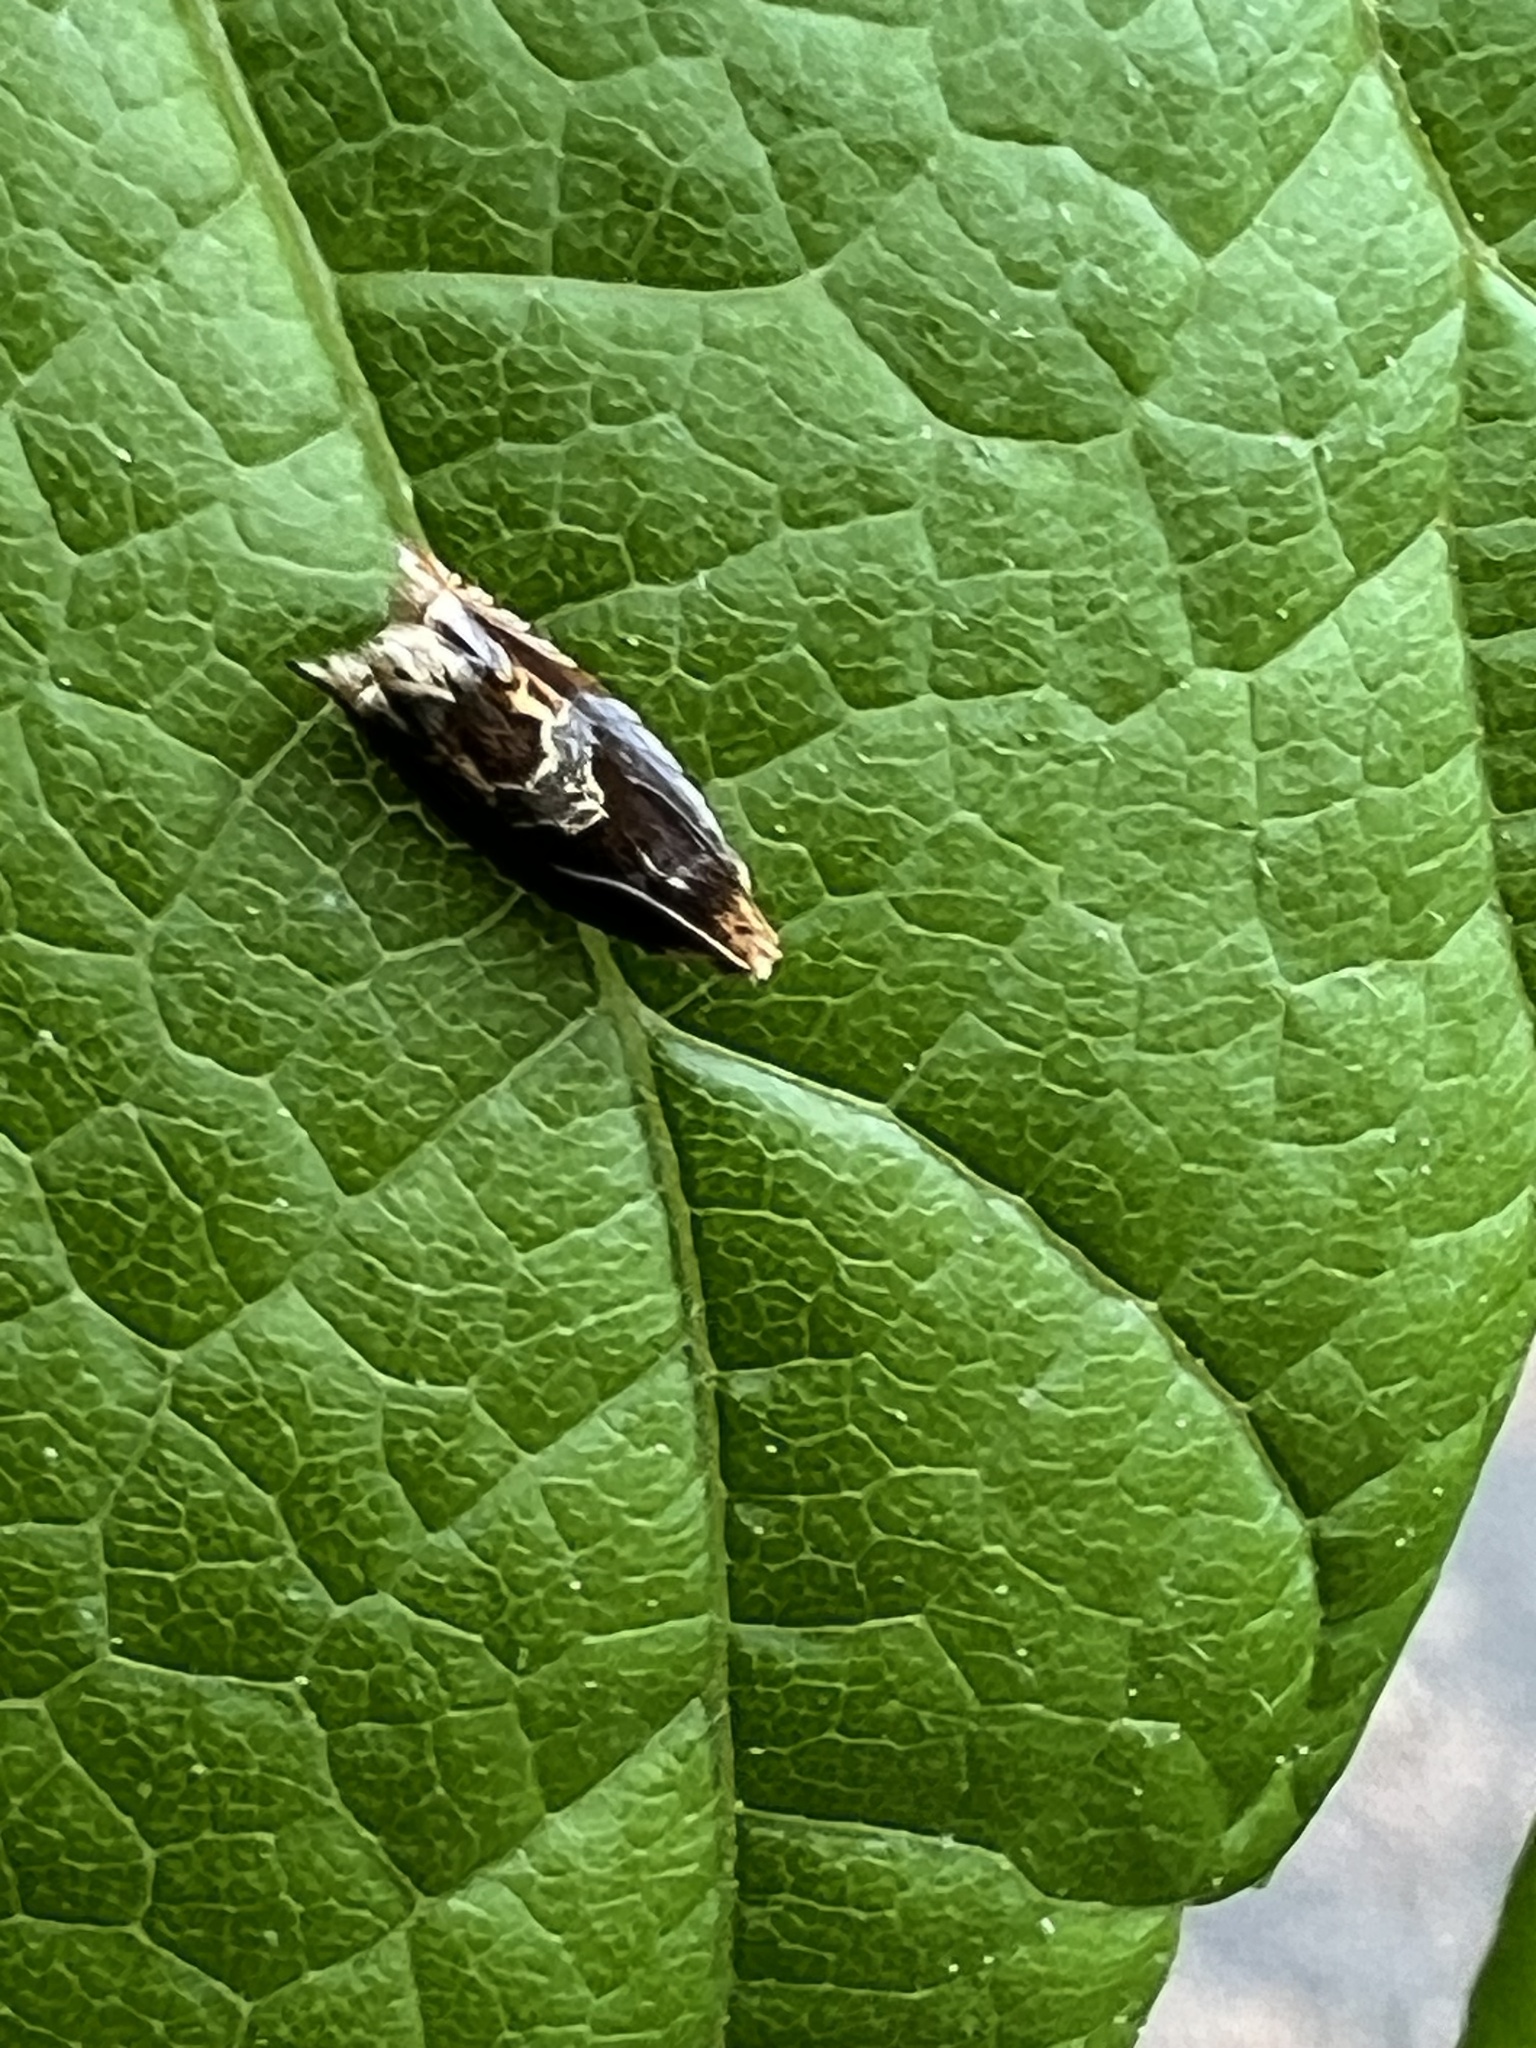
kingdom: Animalia
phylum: Arthropoda
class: Insecta
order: Lepidoptera
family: Tortricidae
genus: Ancylis
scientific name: Ancylis muricana
